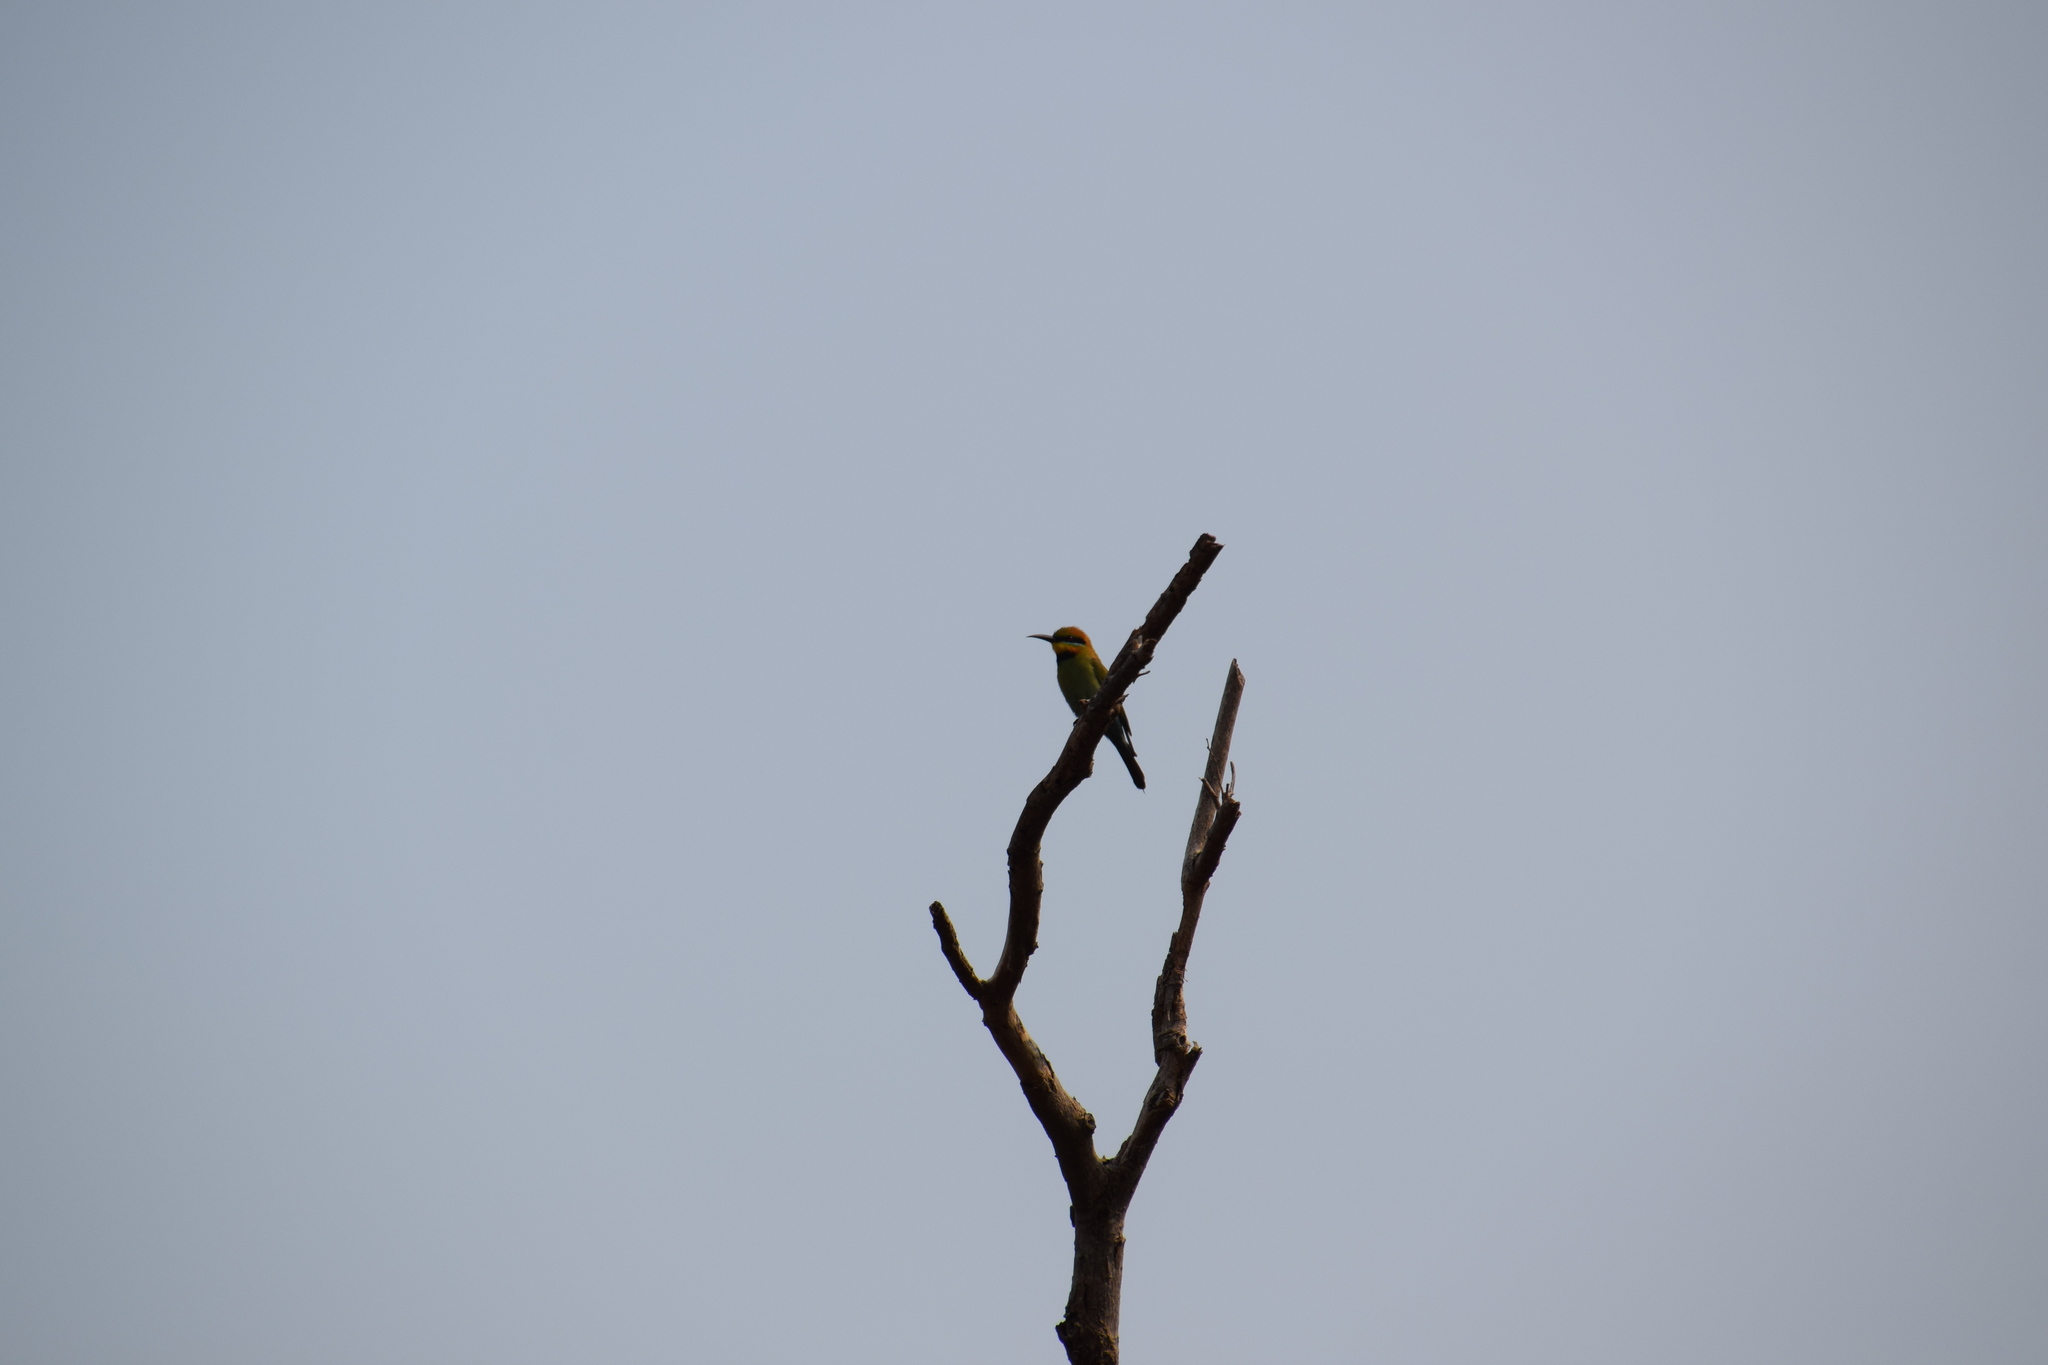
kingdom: Animalia
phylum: Chordata
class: Aves
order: Coraciiformes
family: Meropidae
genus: Merops
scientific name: Merops ornatus
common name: Rainbow bee-eater
